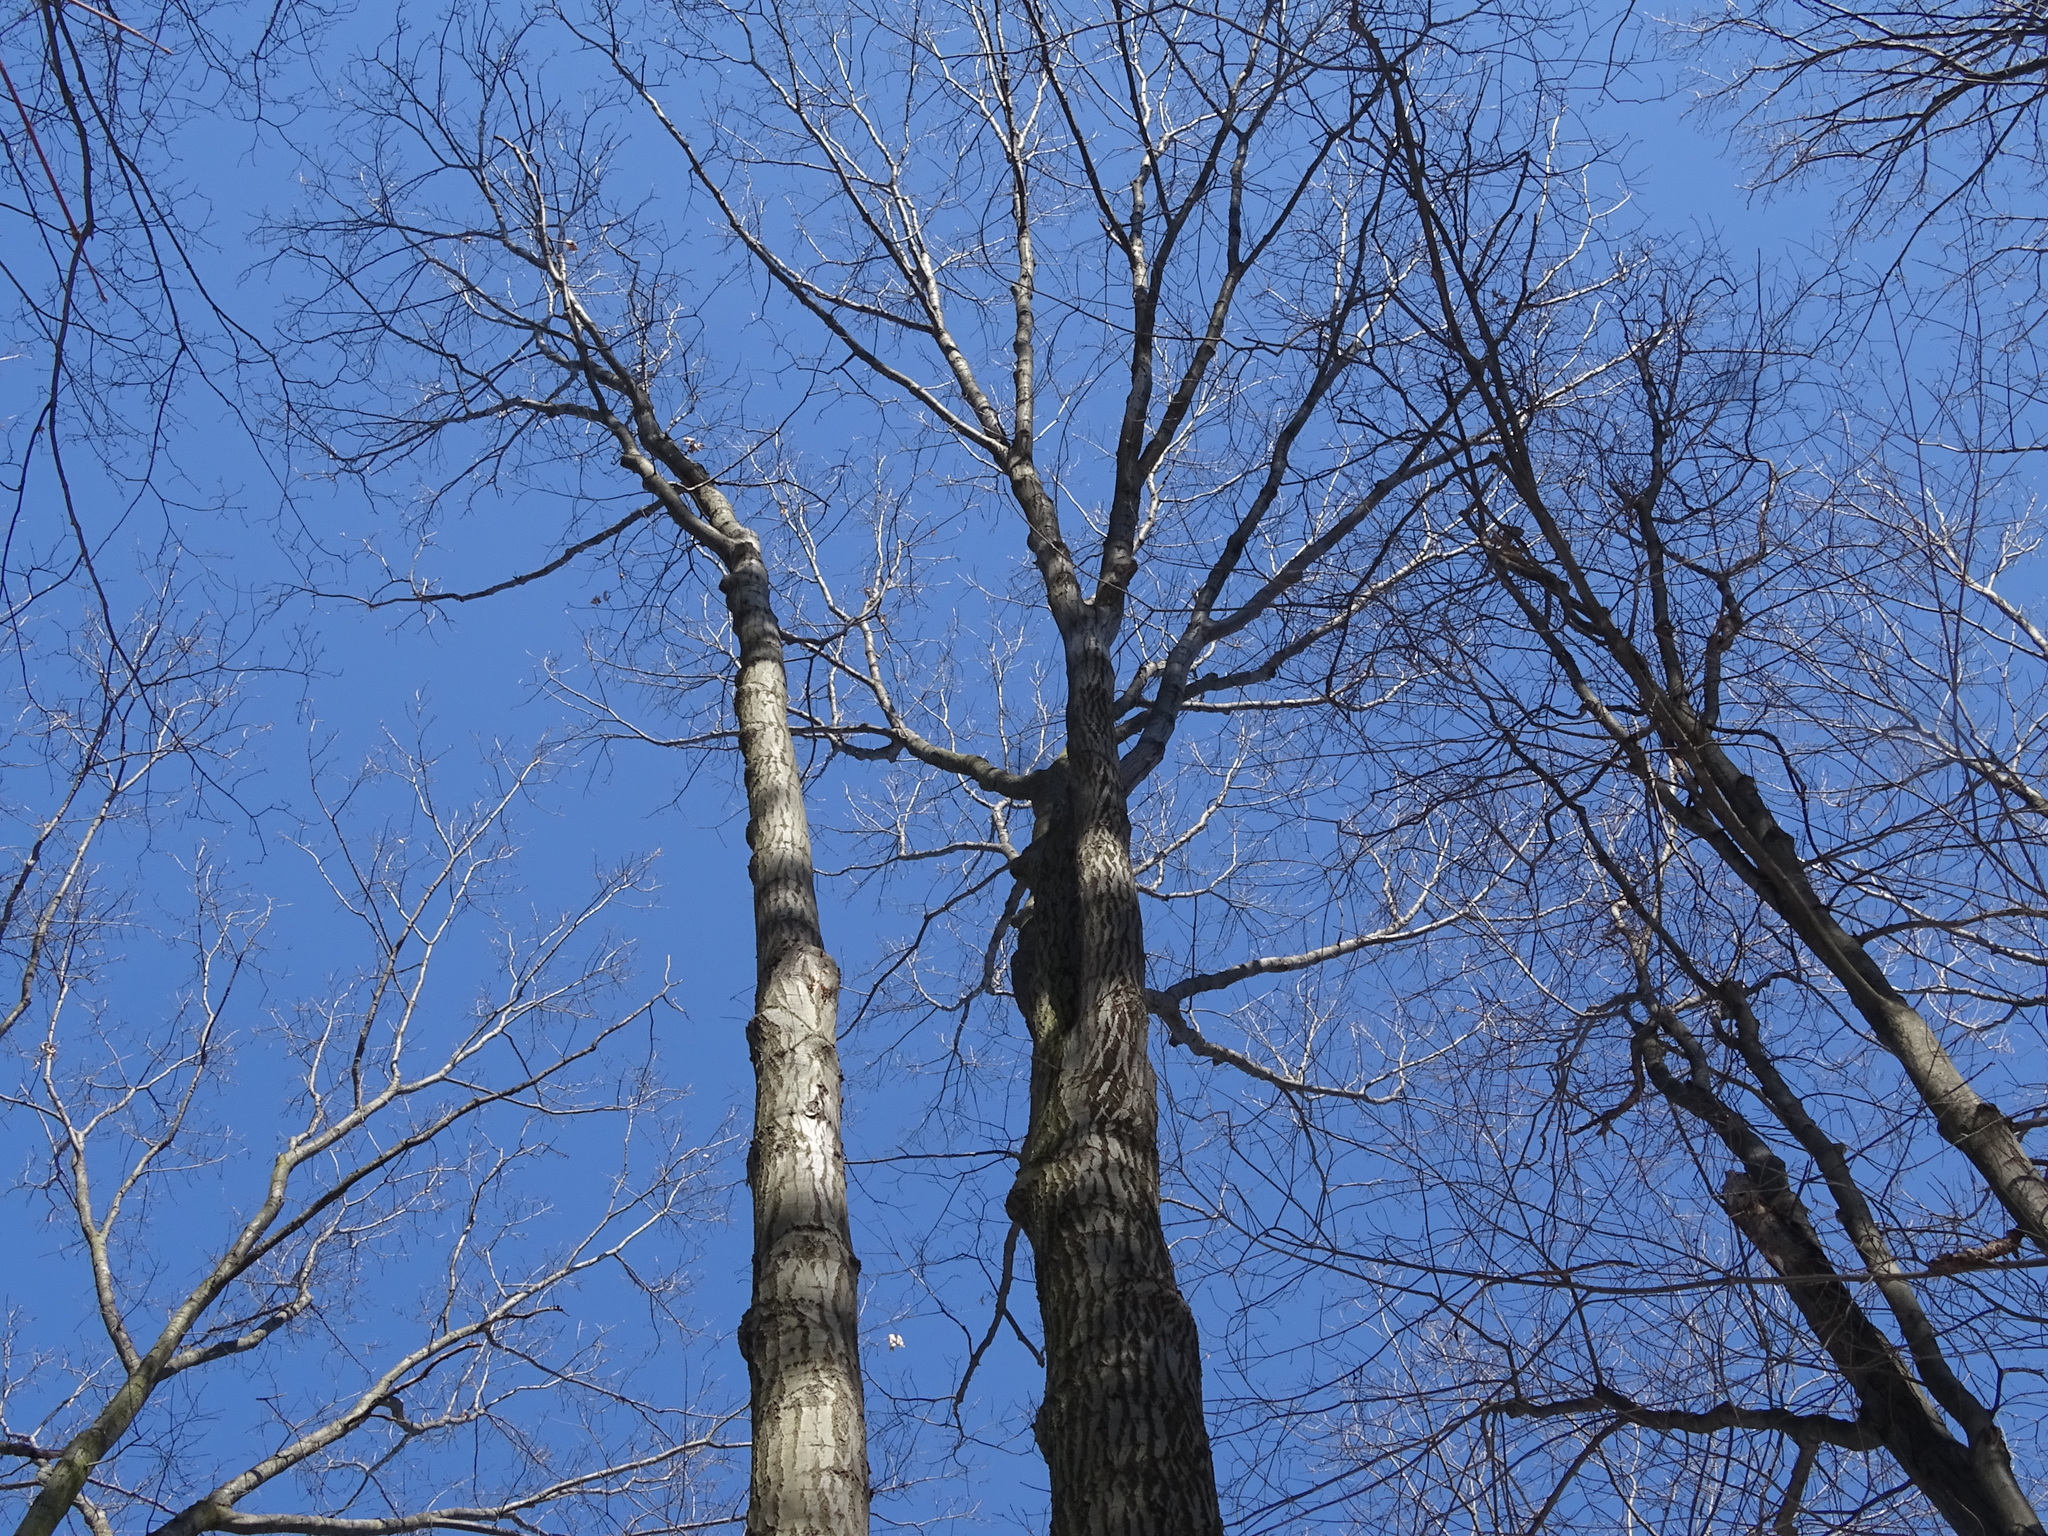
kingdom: Plantae
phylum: Tracheophyta
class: Magnoliopsida
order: Fagales
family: Fagaceae
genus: Quercus
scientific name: Quercus rubra
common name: Red oak
